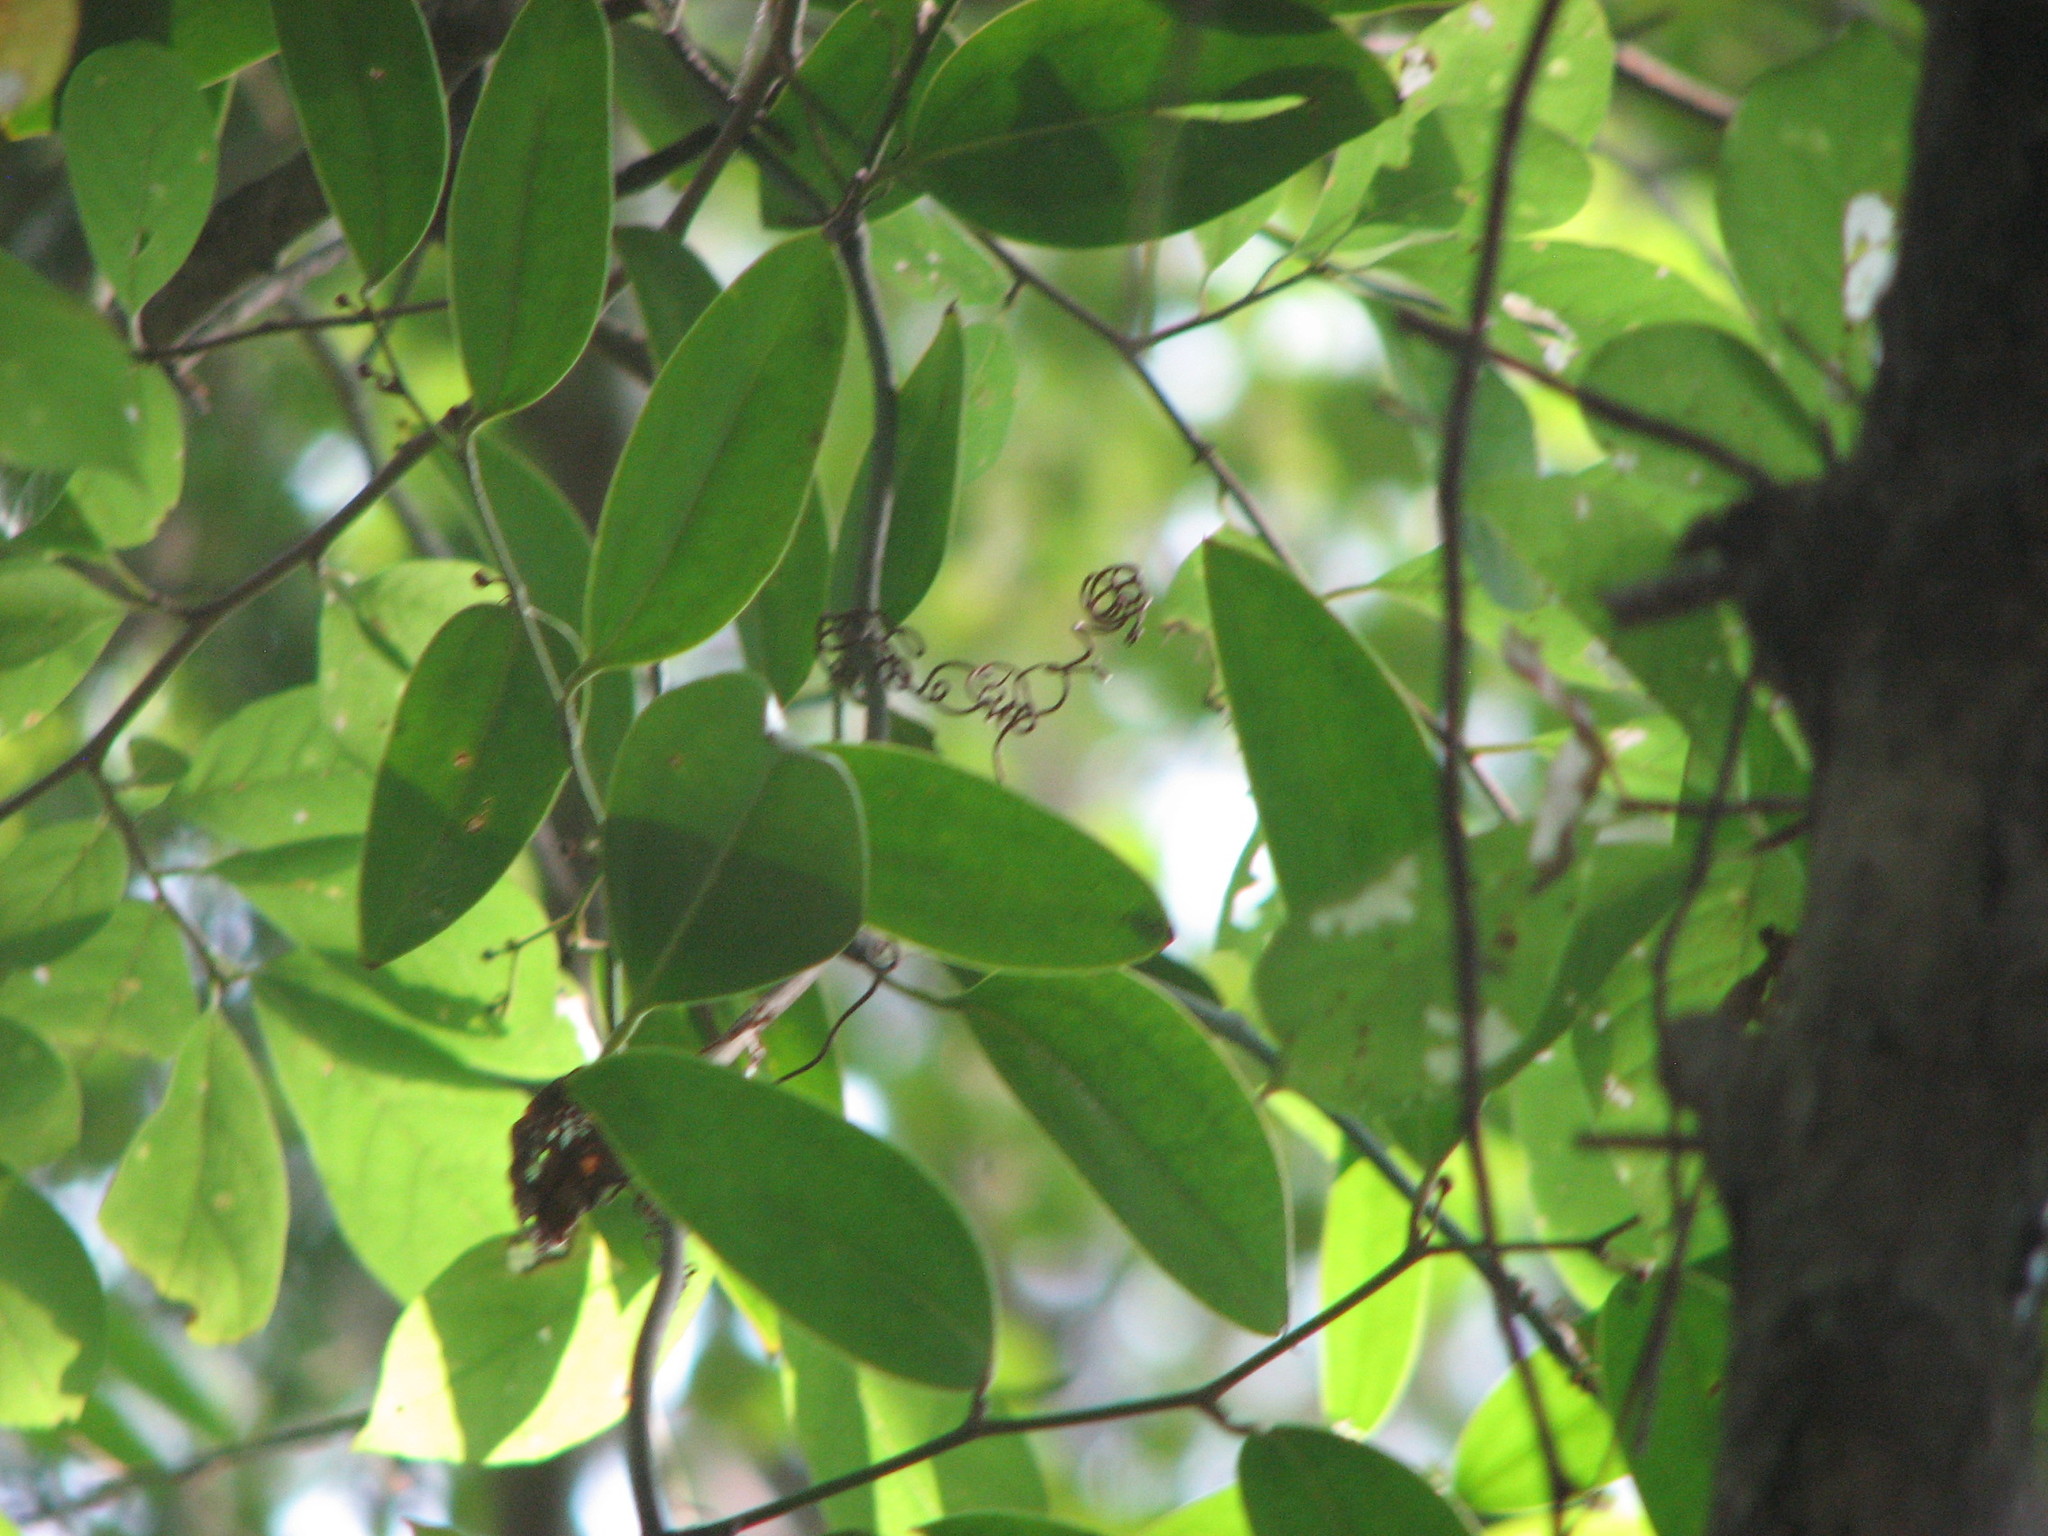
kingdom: Plantae
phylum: Tracheophyta
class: Liliopsida
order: Liliales
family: Smilacaceae
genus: Smilax
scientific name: Smilax laurifolia
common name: Bamboovine
